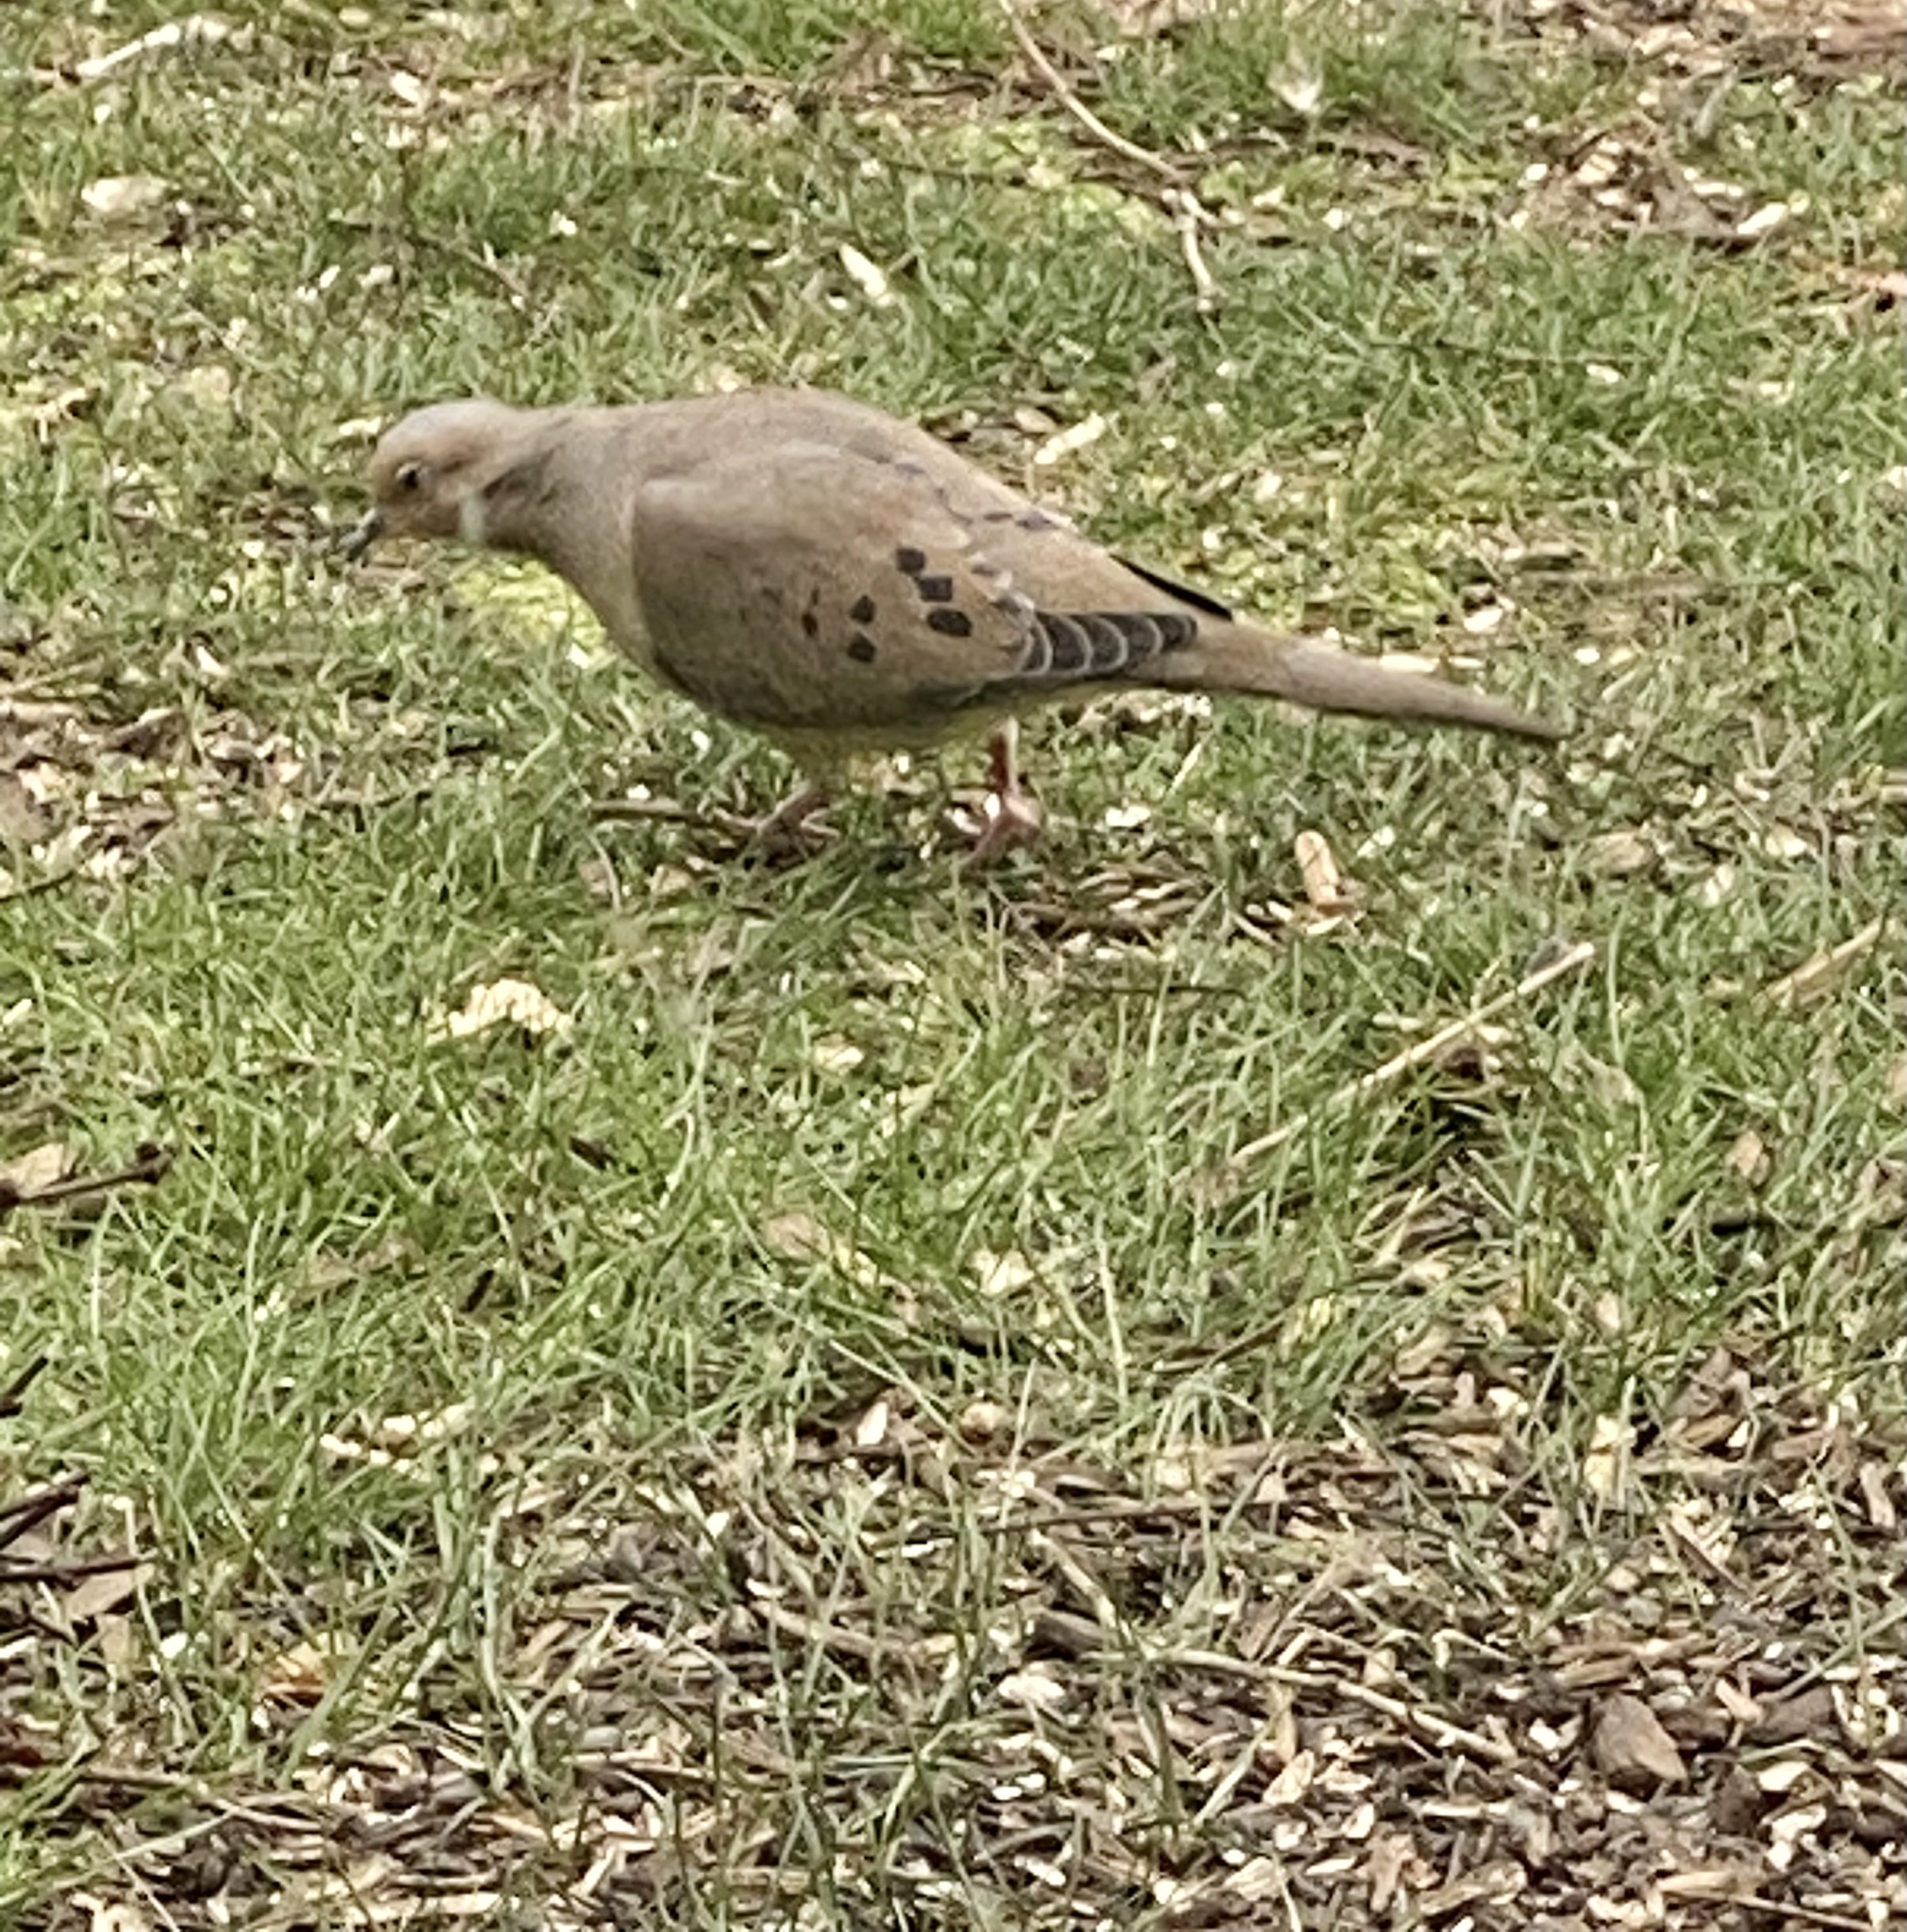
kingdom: Animalia
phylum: Chordata
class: Aves
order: Columbiformes
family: Columbidae
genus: Zenaida
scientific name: Zenaida macroura
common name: Mourning dove
